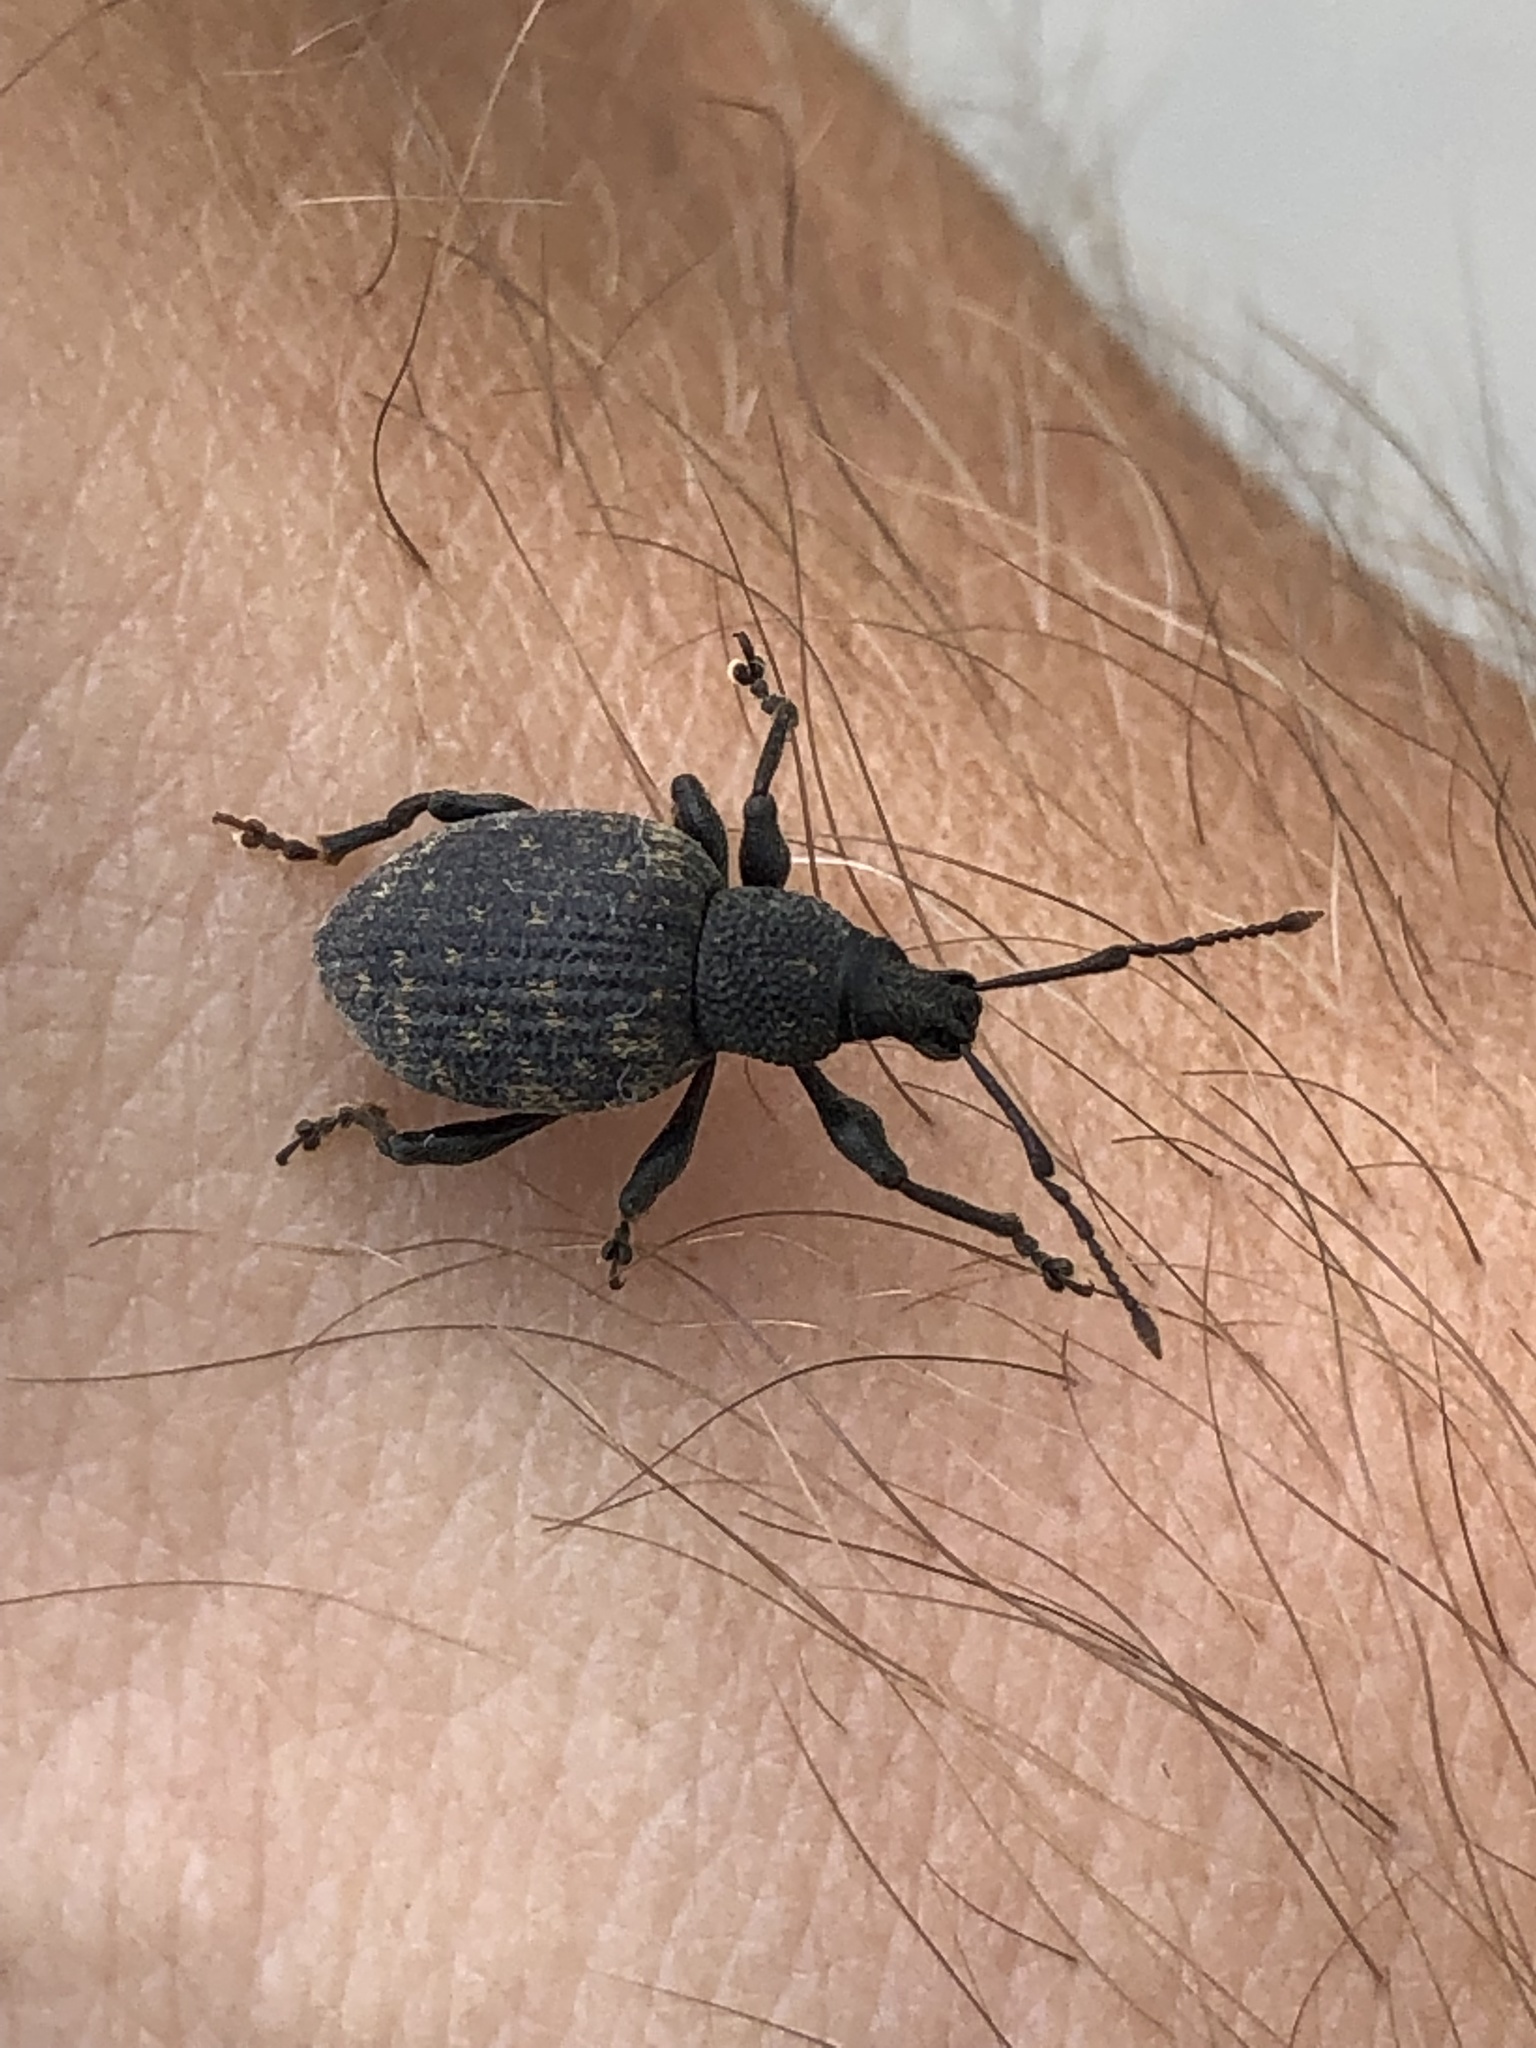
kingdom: Animalia
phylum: Arthropoda
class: Insecta
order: Coleoptera
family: Curculionidae
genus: Otiorhynchus
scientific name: Otiorhynchus sulcatus
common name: Black vine weevil
